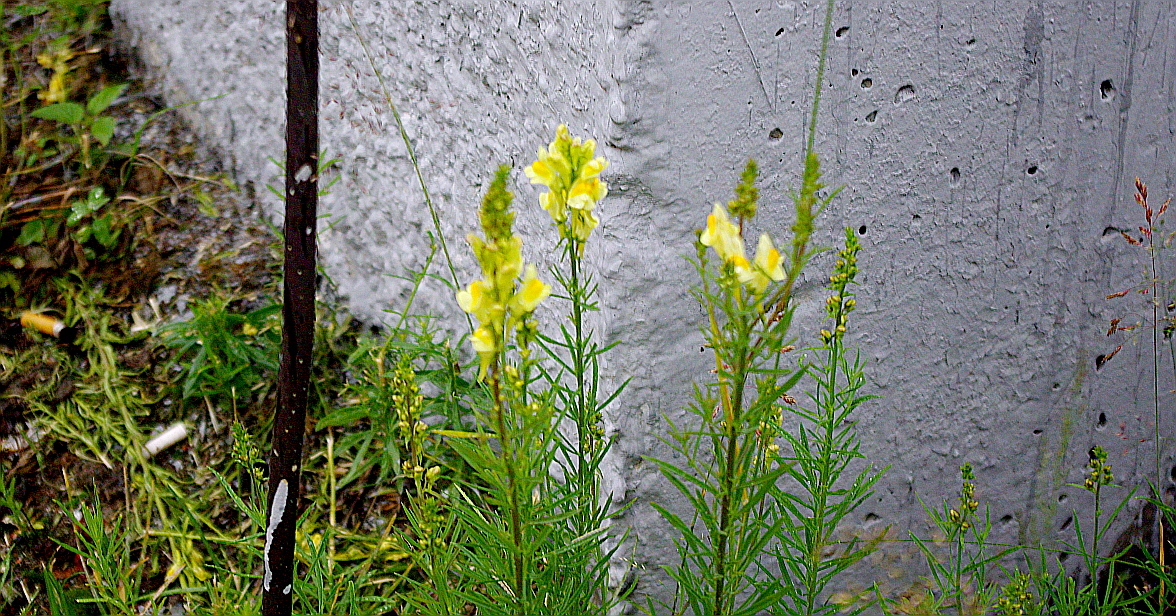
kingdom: Plantae
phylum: Tracheophyta
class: Magnoliopsida
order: Lamiales
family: Plantaginaceae
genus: Linaria
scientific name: Linaria vulgaris
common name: Butter and eggs
